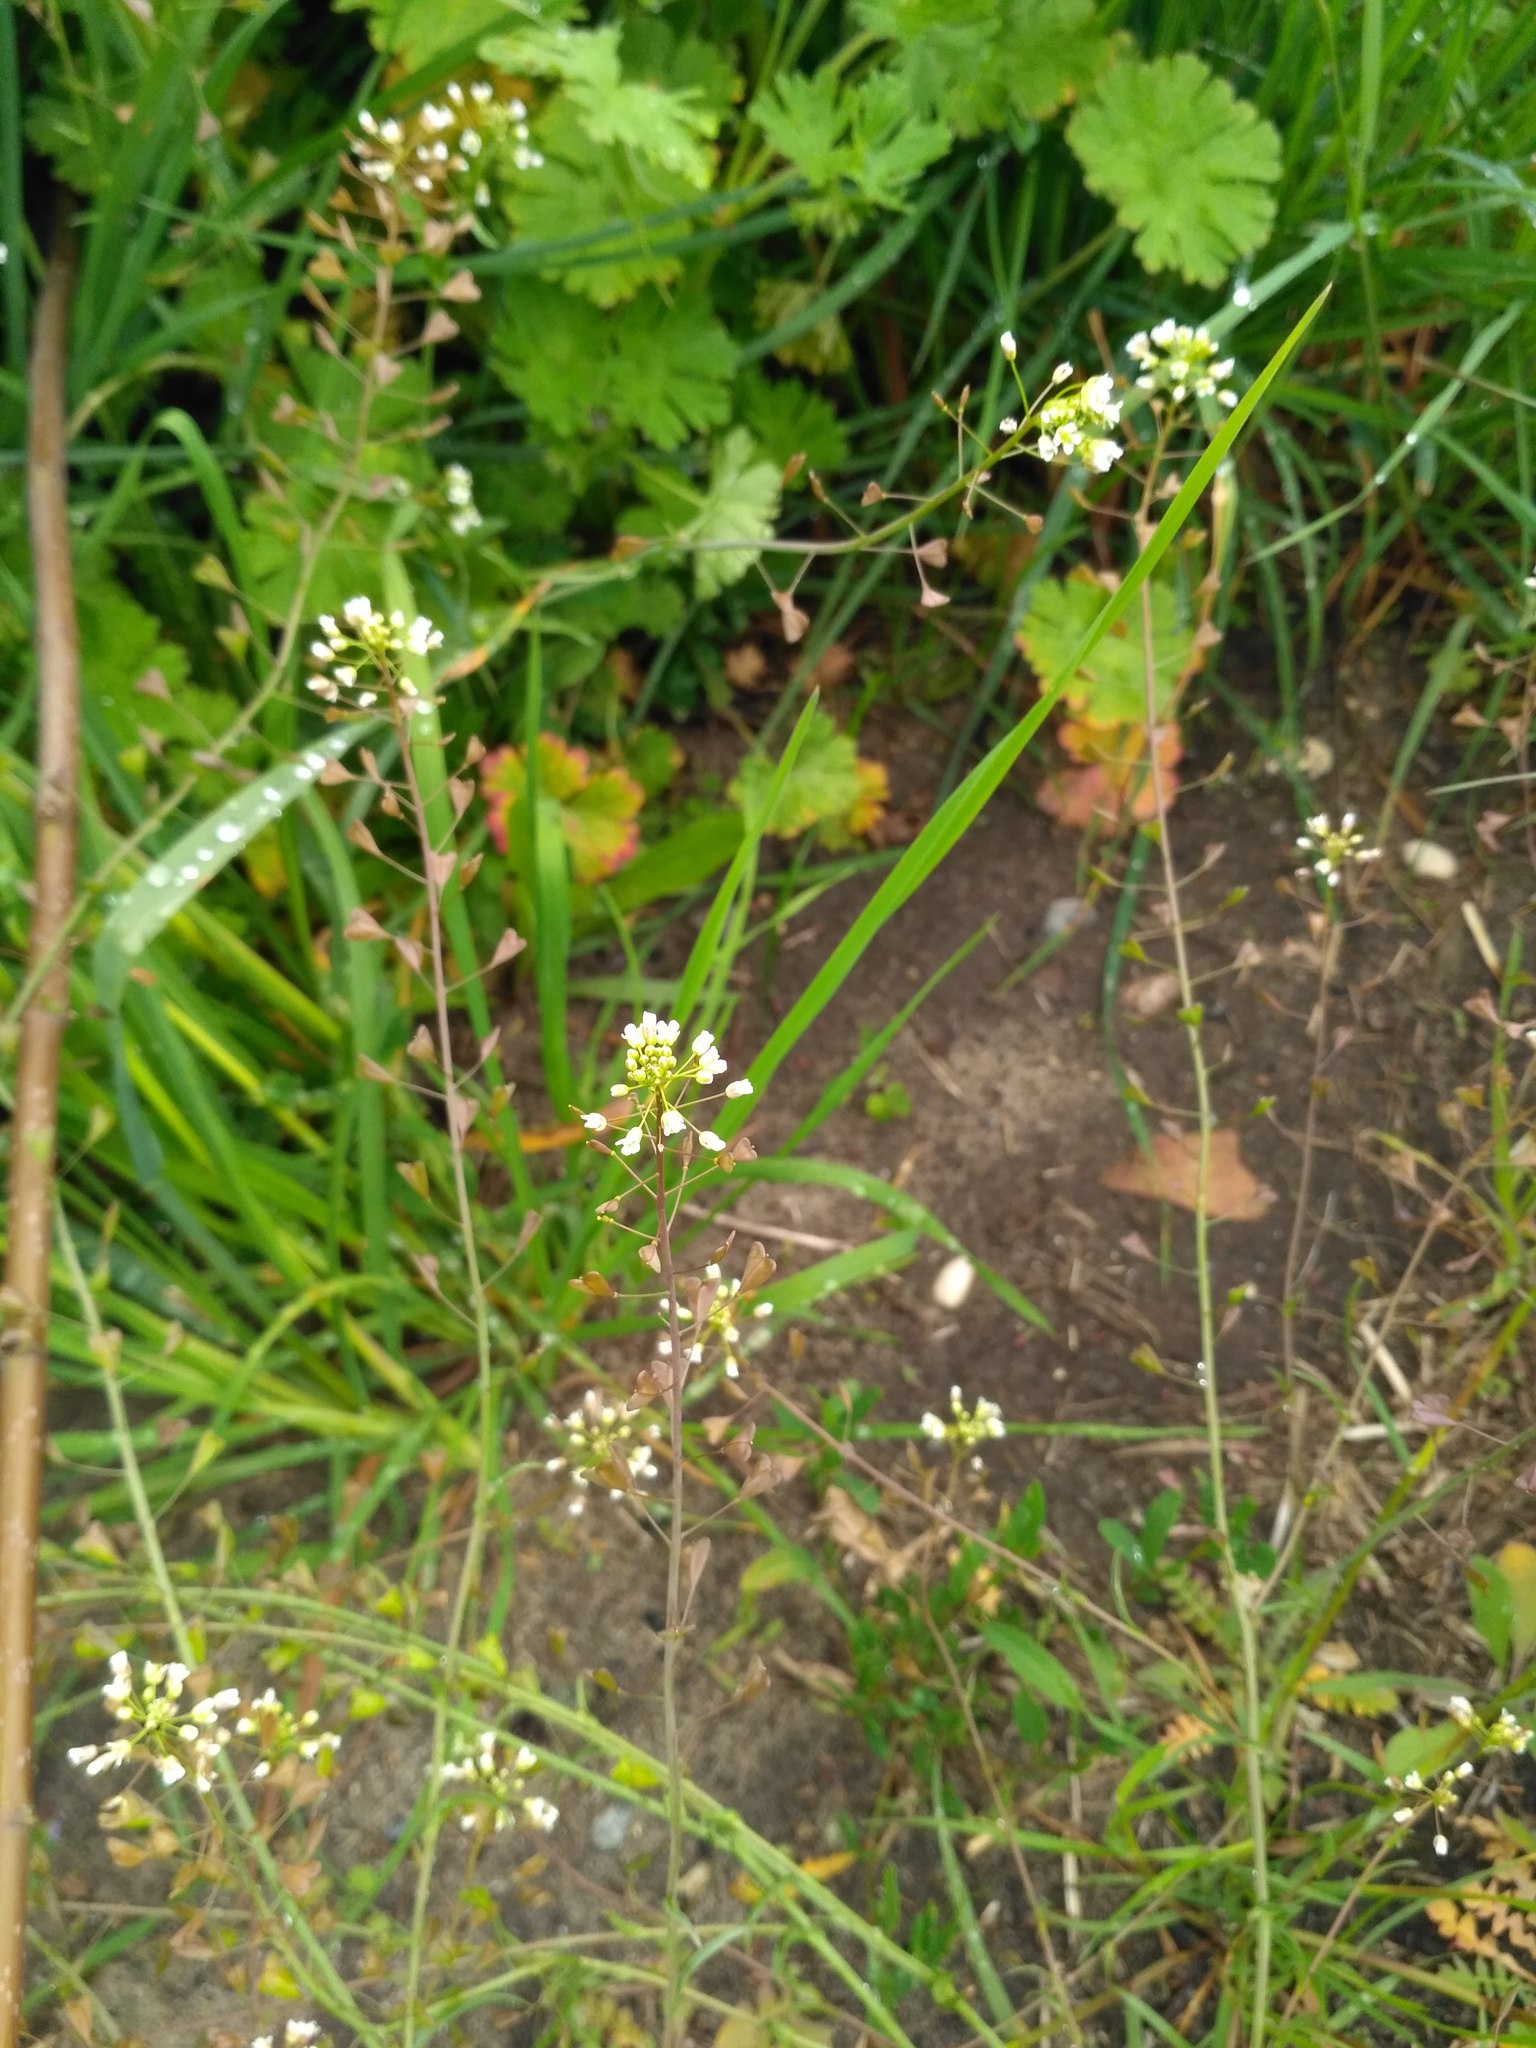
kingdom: Plantae
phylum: Tracheophyta
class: Magnoliopsida
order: Brassicales
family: Brassicaceae
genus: Capsella
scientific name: Capsella bursa-pastoris
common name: Shepherd's purse
